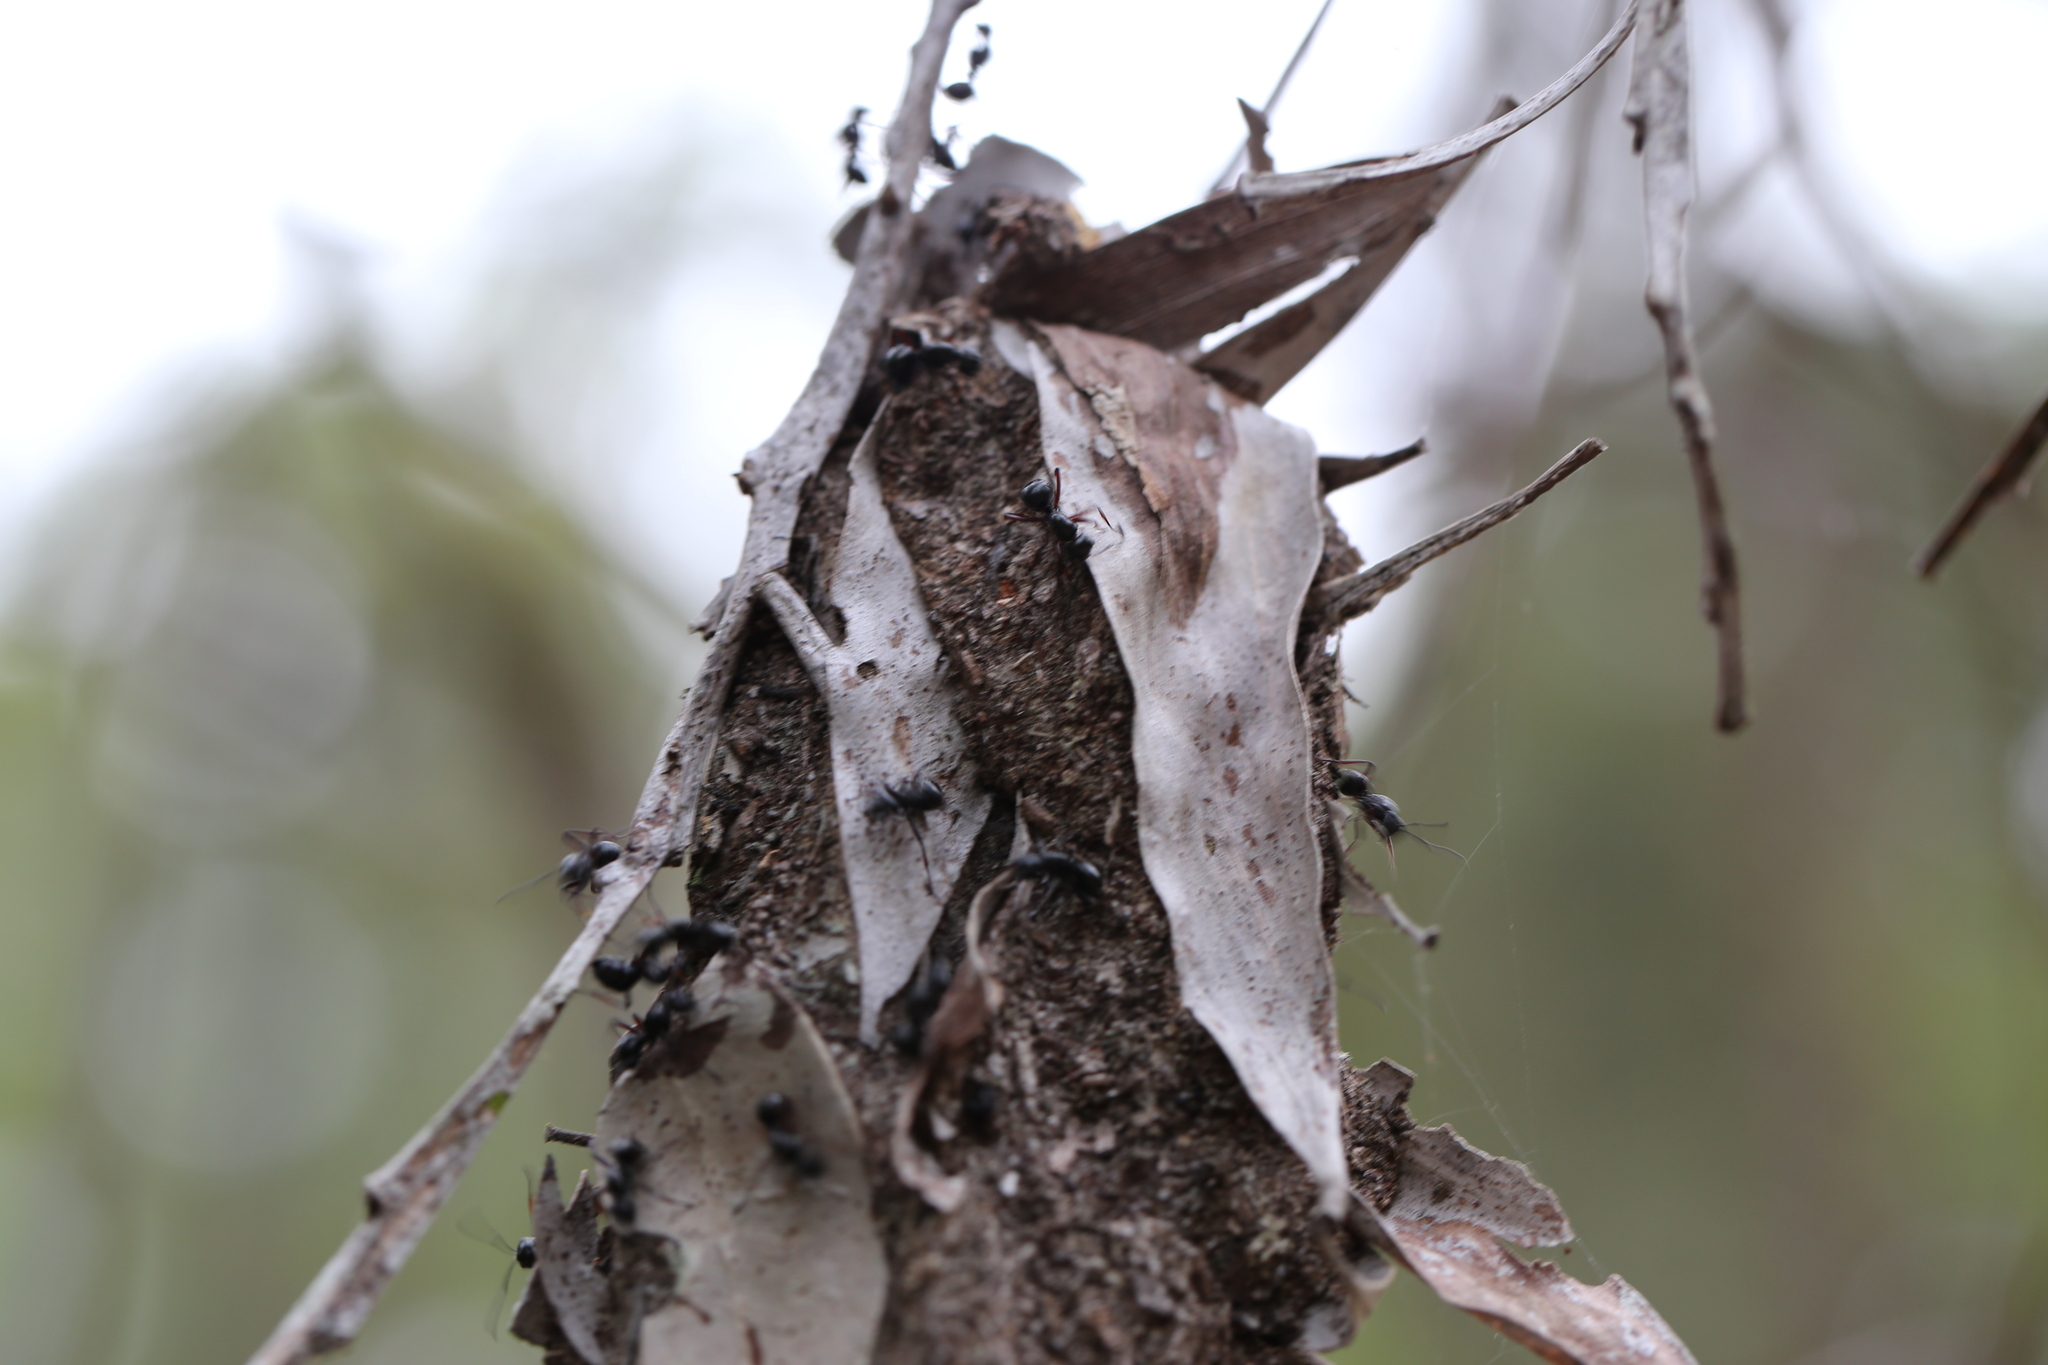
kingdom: Animalia
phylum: Arthropoda
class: Insecta
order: Hymenoptera
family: Formicidae
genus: Polyrhachis
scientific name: Polyrhachis australis
